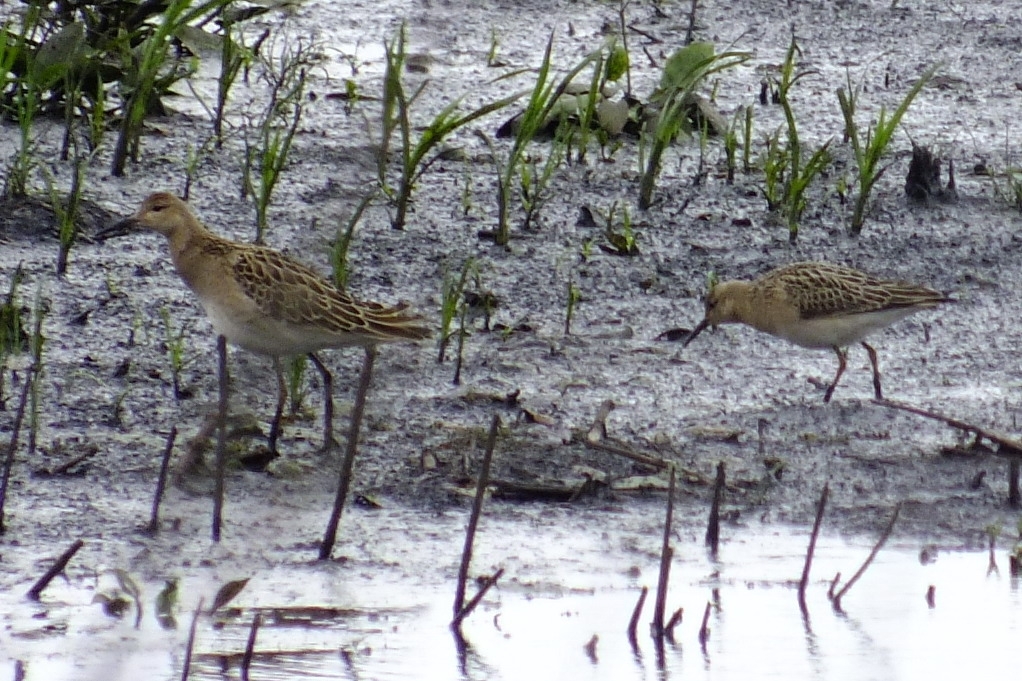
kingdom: Animalia
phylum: Chordata
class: Aves
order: Charadriiformes
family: Scolopacidae
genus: Calidris
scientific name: Calidris pugnax
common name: Ruff
